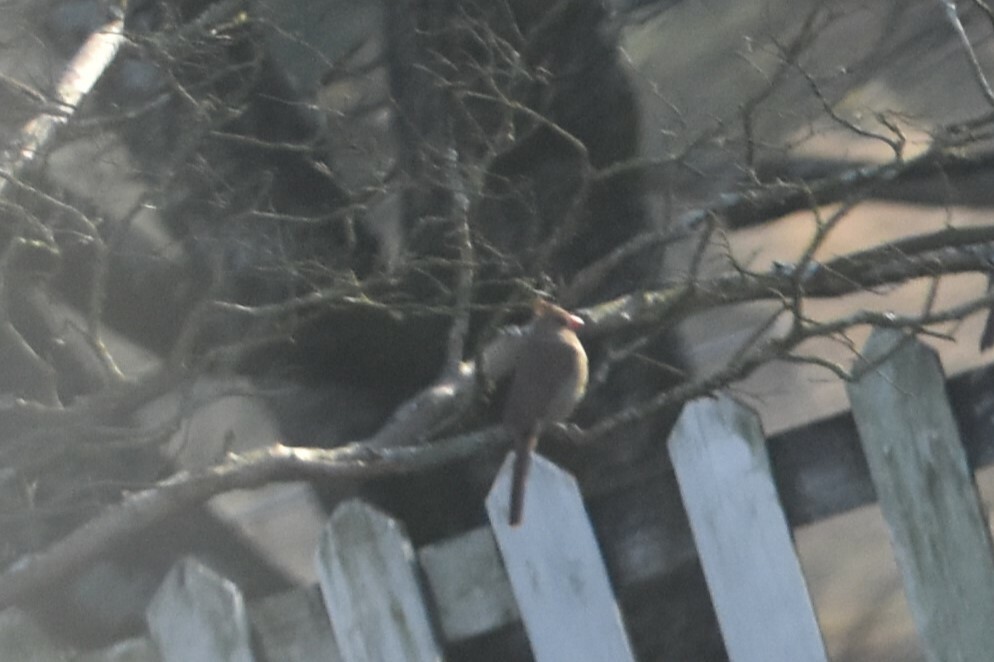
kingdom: Animalia
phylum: Chordata
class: Aves
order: Passeriformes
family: Cardinalidae
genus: Cardinalis
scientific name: Cardinalis cardinalis
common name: Northern cardinal
